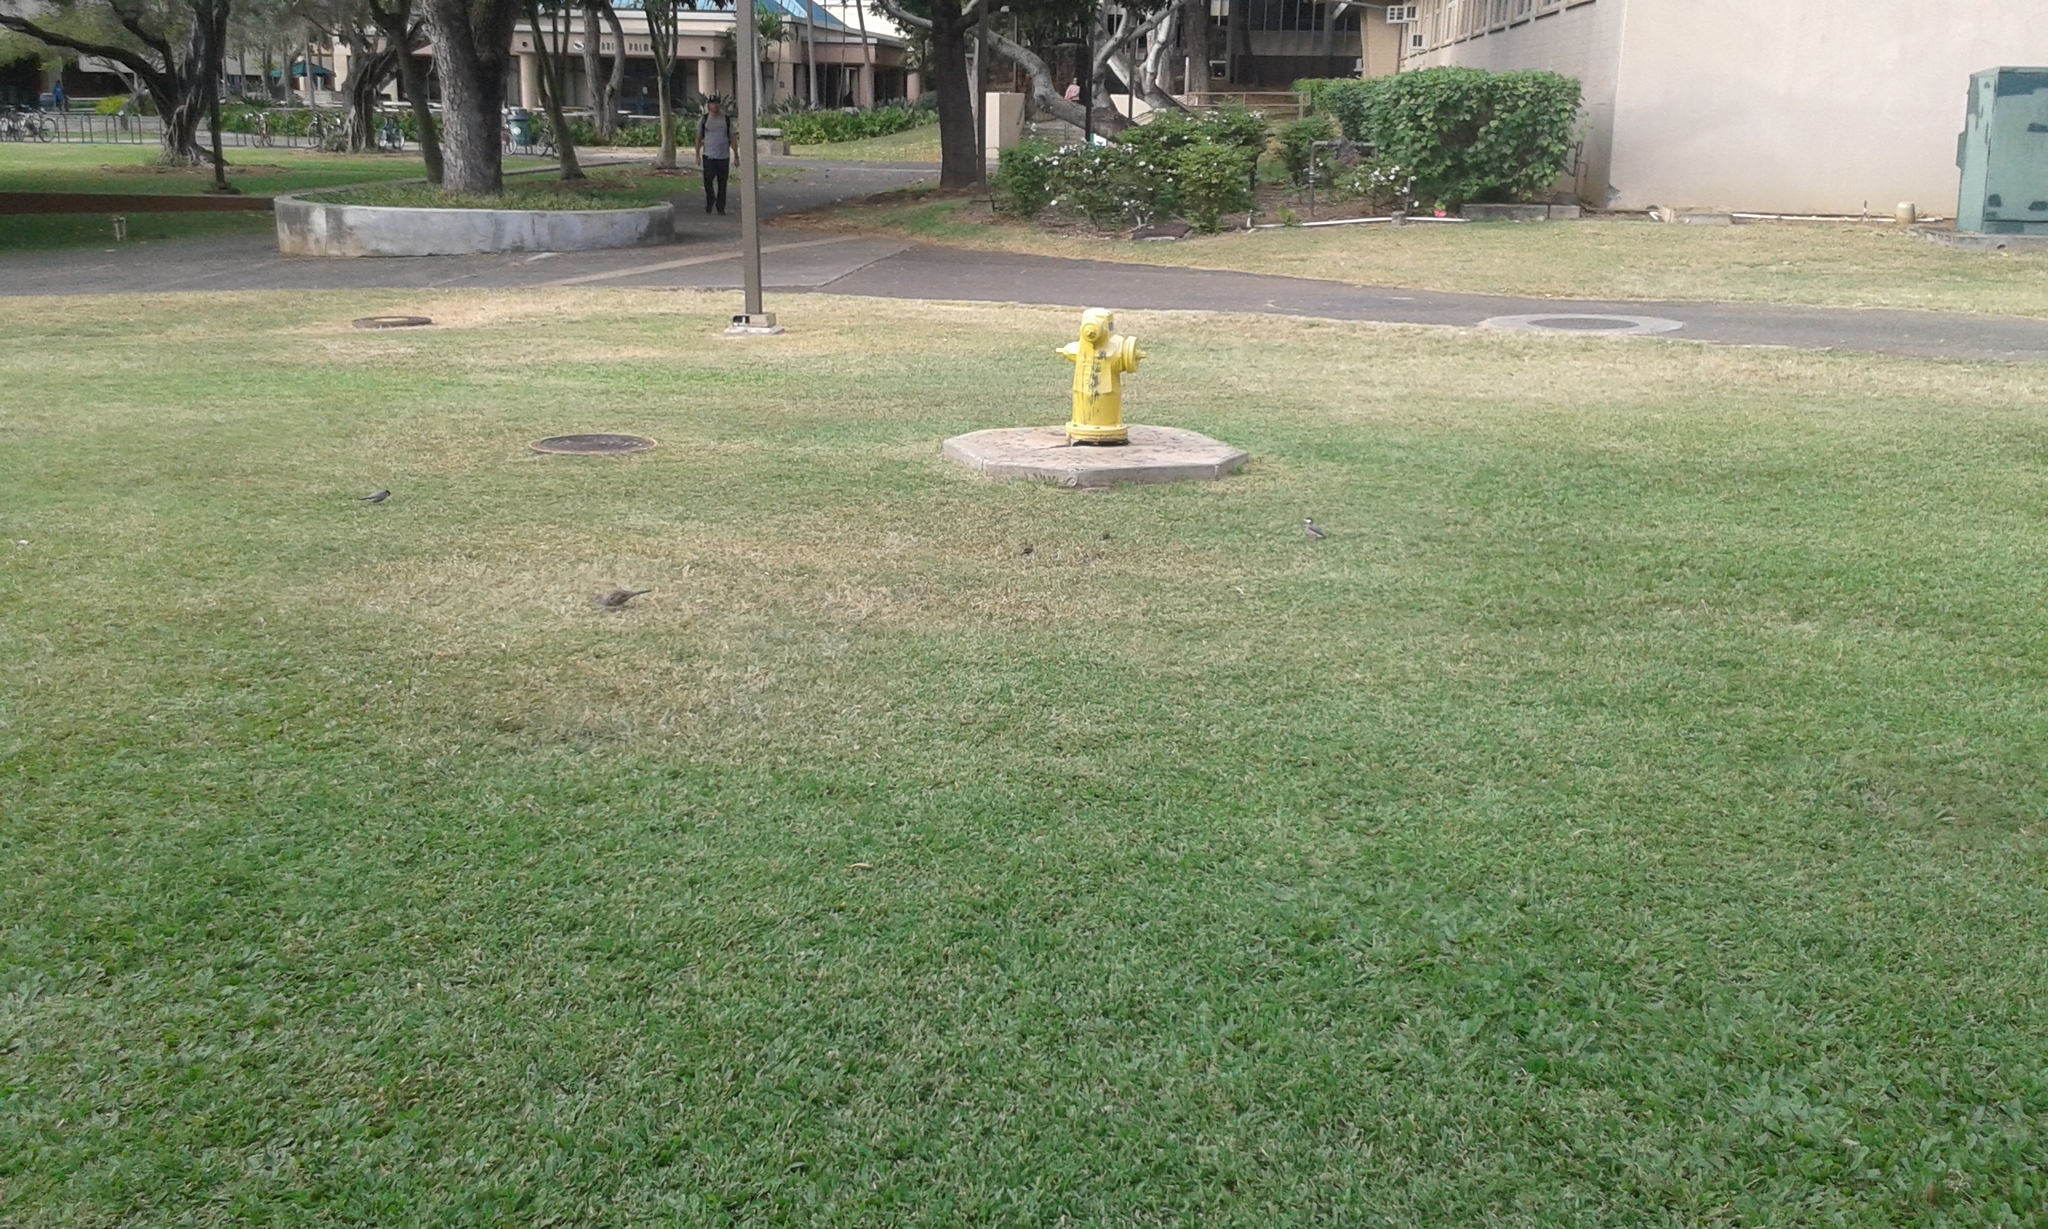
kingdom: Animalia
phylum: Chordata
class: Aves
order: Passeriformes
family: Estrildidae
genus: Estrilda
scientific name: Estrilda astrild
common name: Common waxbill
